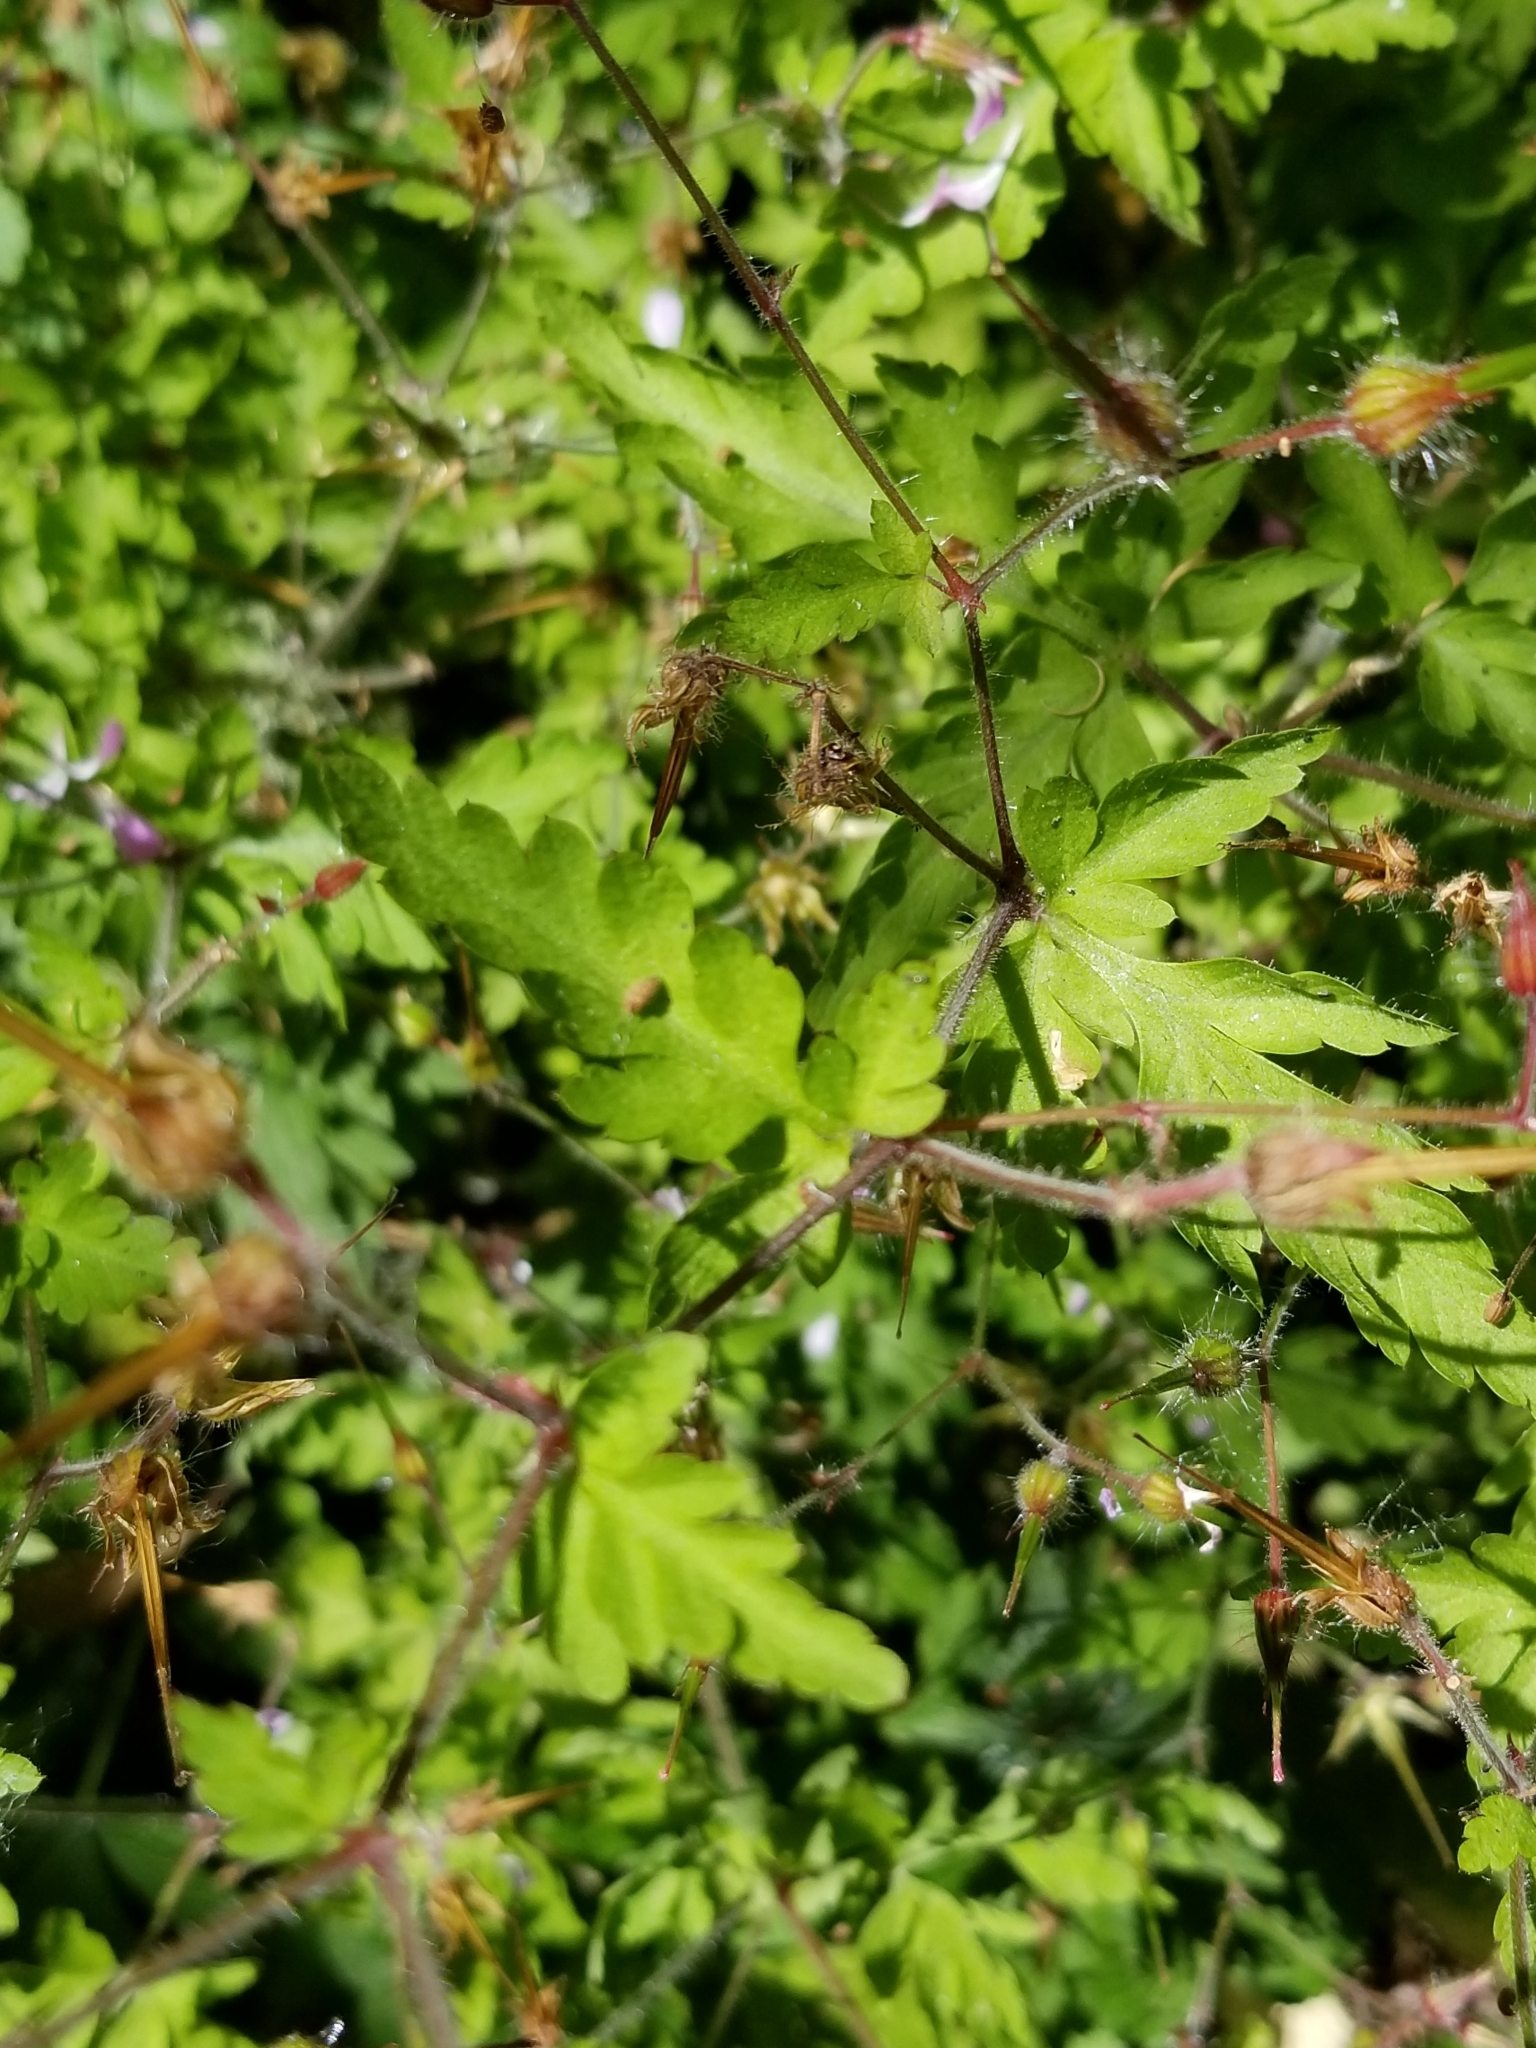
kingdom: Plantae
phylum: Tracheophyta
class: Magnoliopsida
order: Geraniales
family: Geraniaceae
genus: Geranium
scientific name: Geranium robertianum
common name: Herb-robert
